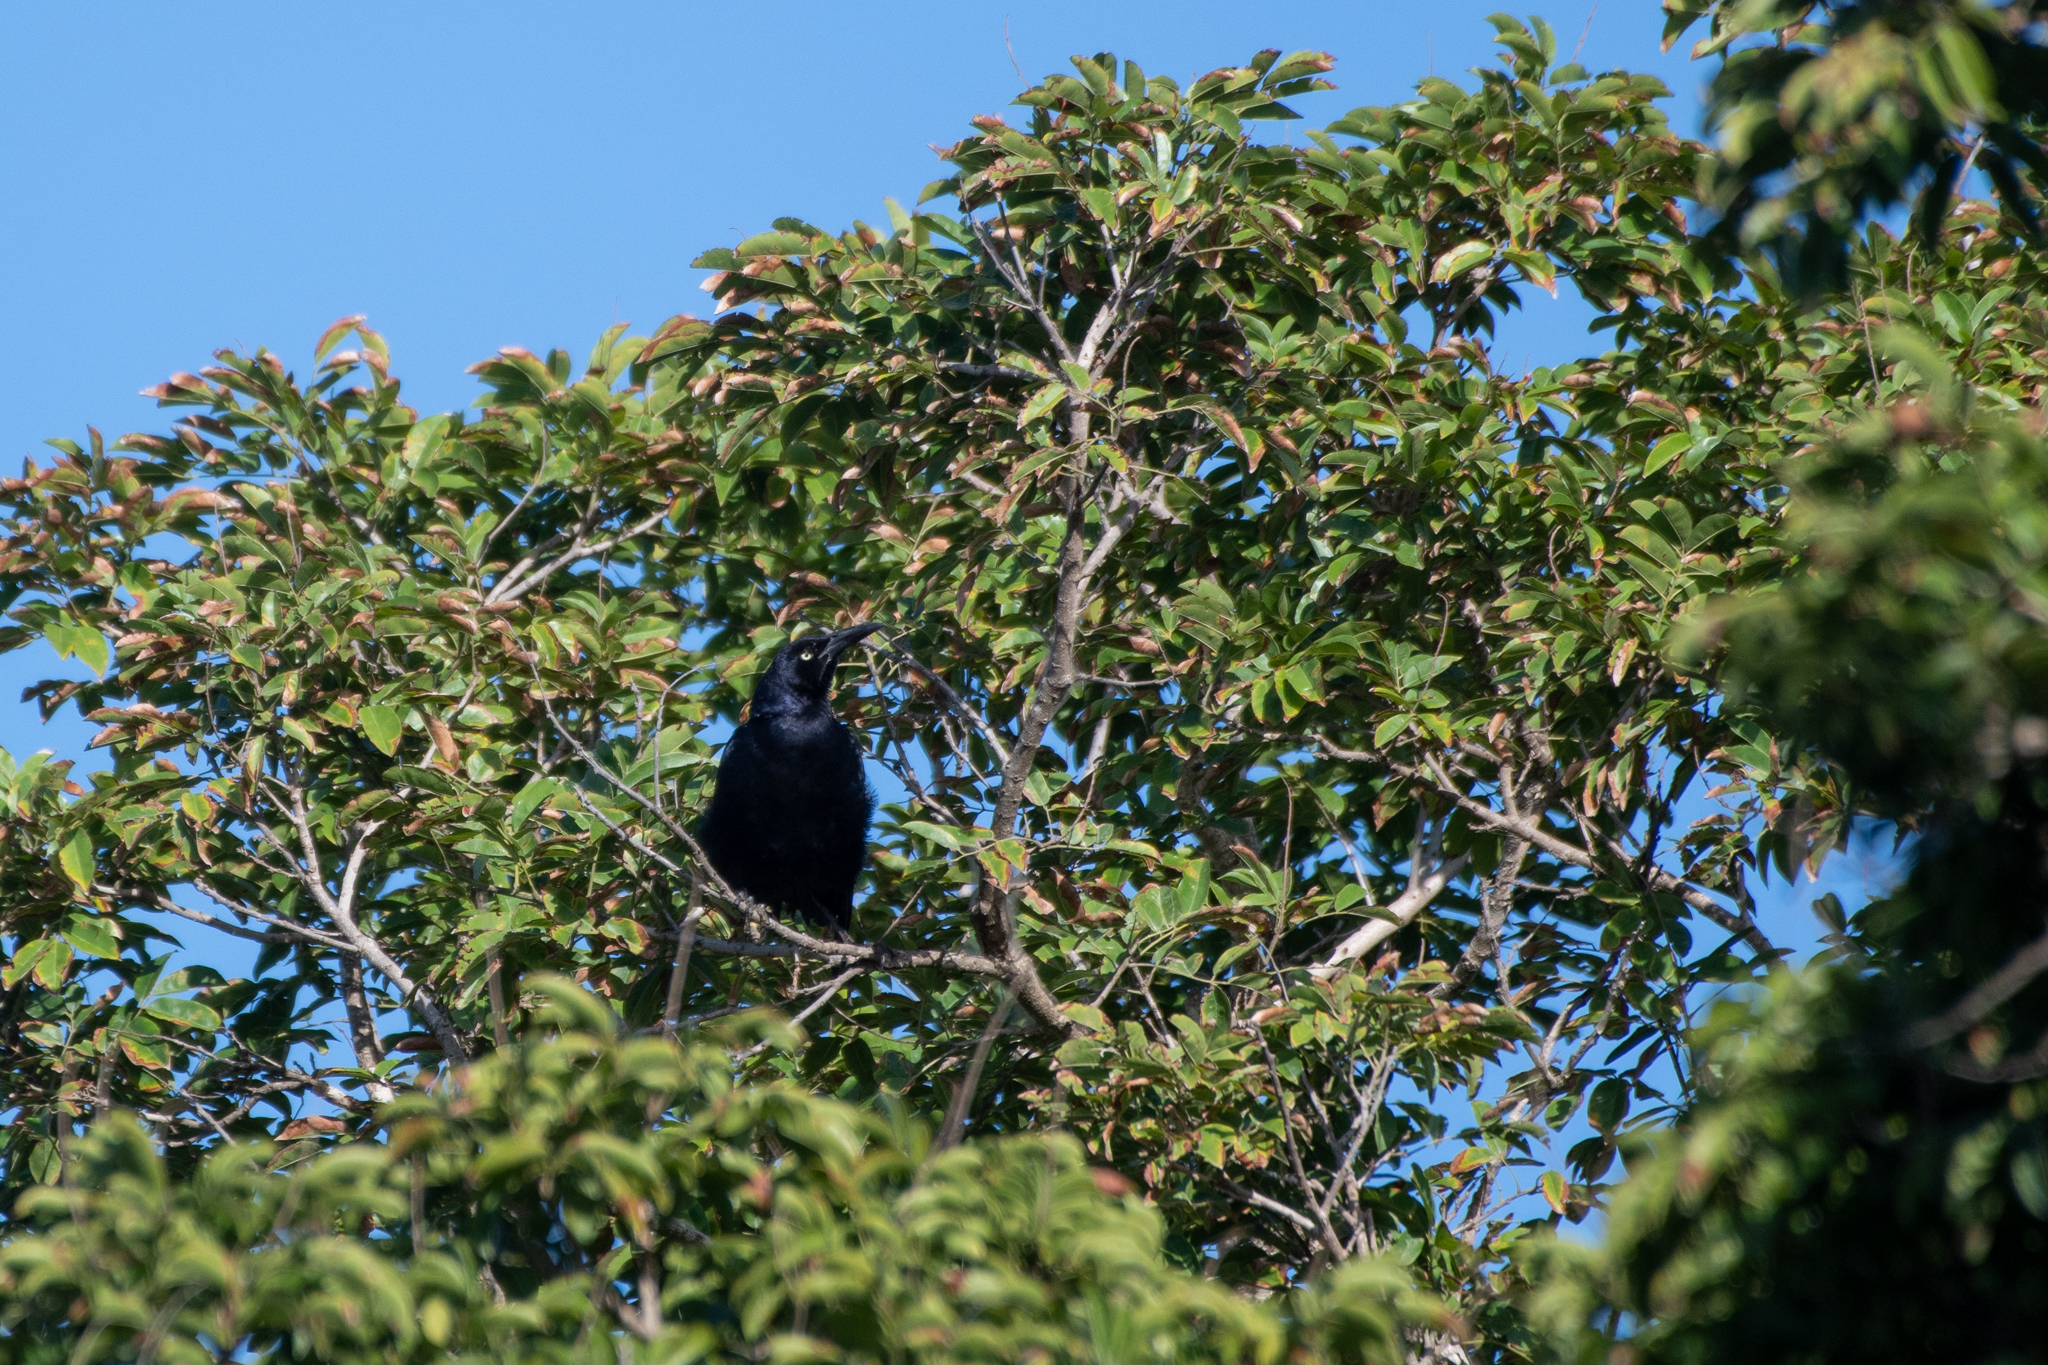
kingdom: Animalia
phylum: Chordata
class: Aves
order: Passeriformes
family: Icteridae
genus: Quiscalus
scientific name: Quiscalus mexicanus
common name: Great-tailed grackle
